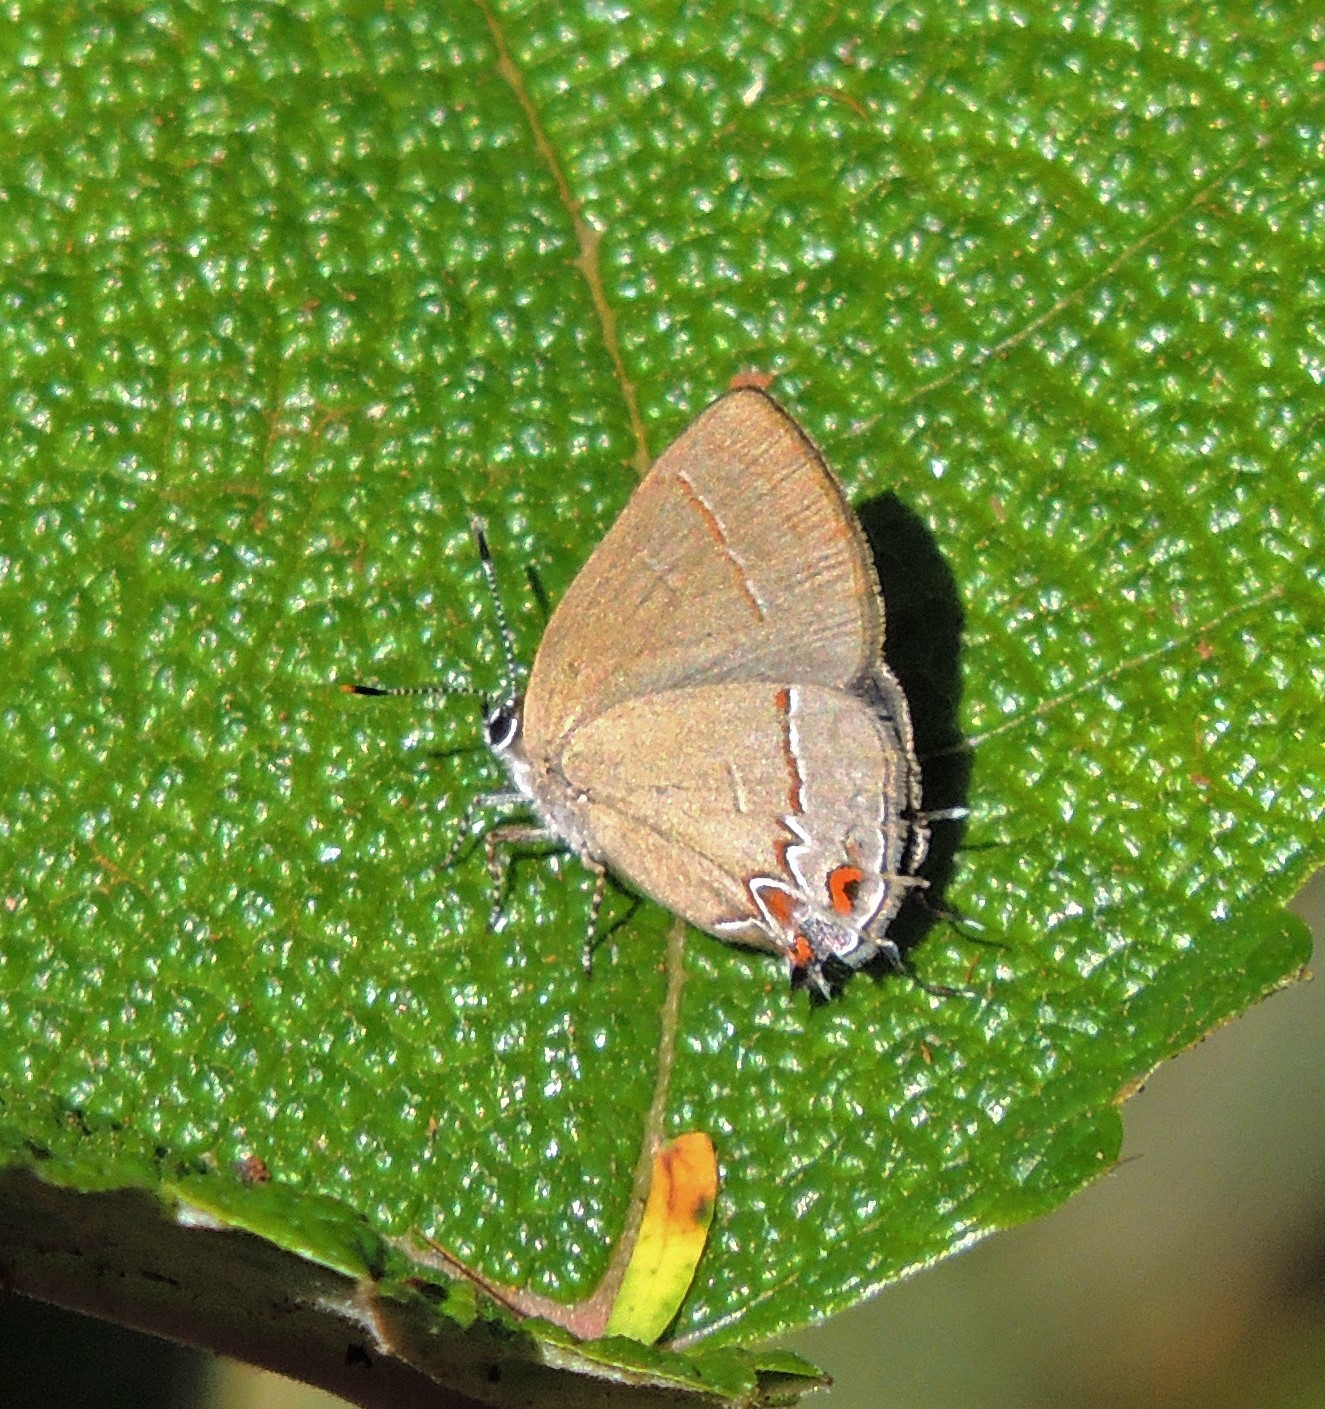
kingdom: Animalia
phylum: Arthropoda
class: Insecta
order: Lepidoptera
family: Lycaenidae
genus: Calycopis
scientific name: Calycopis caulonia
